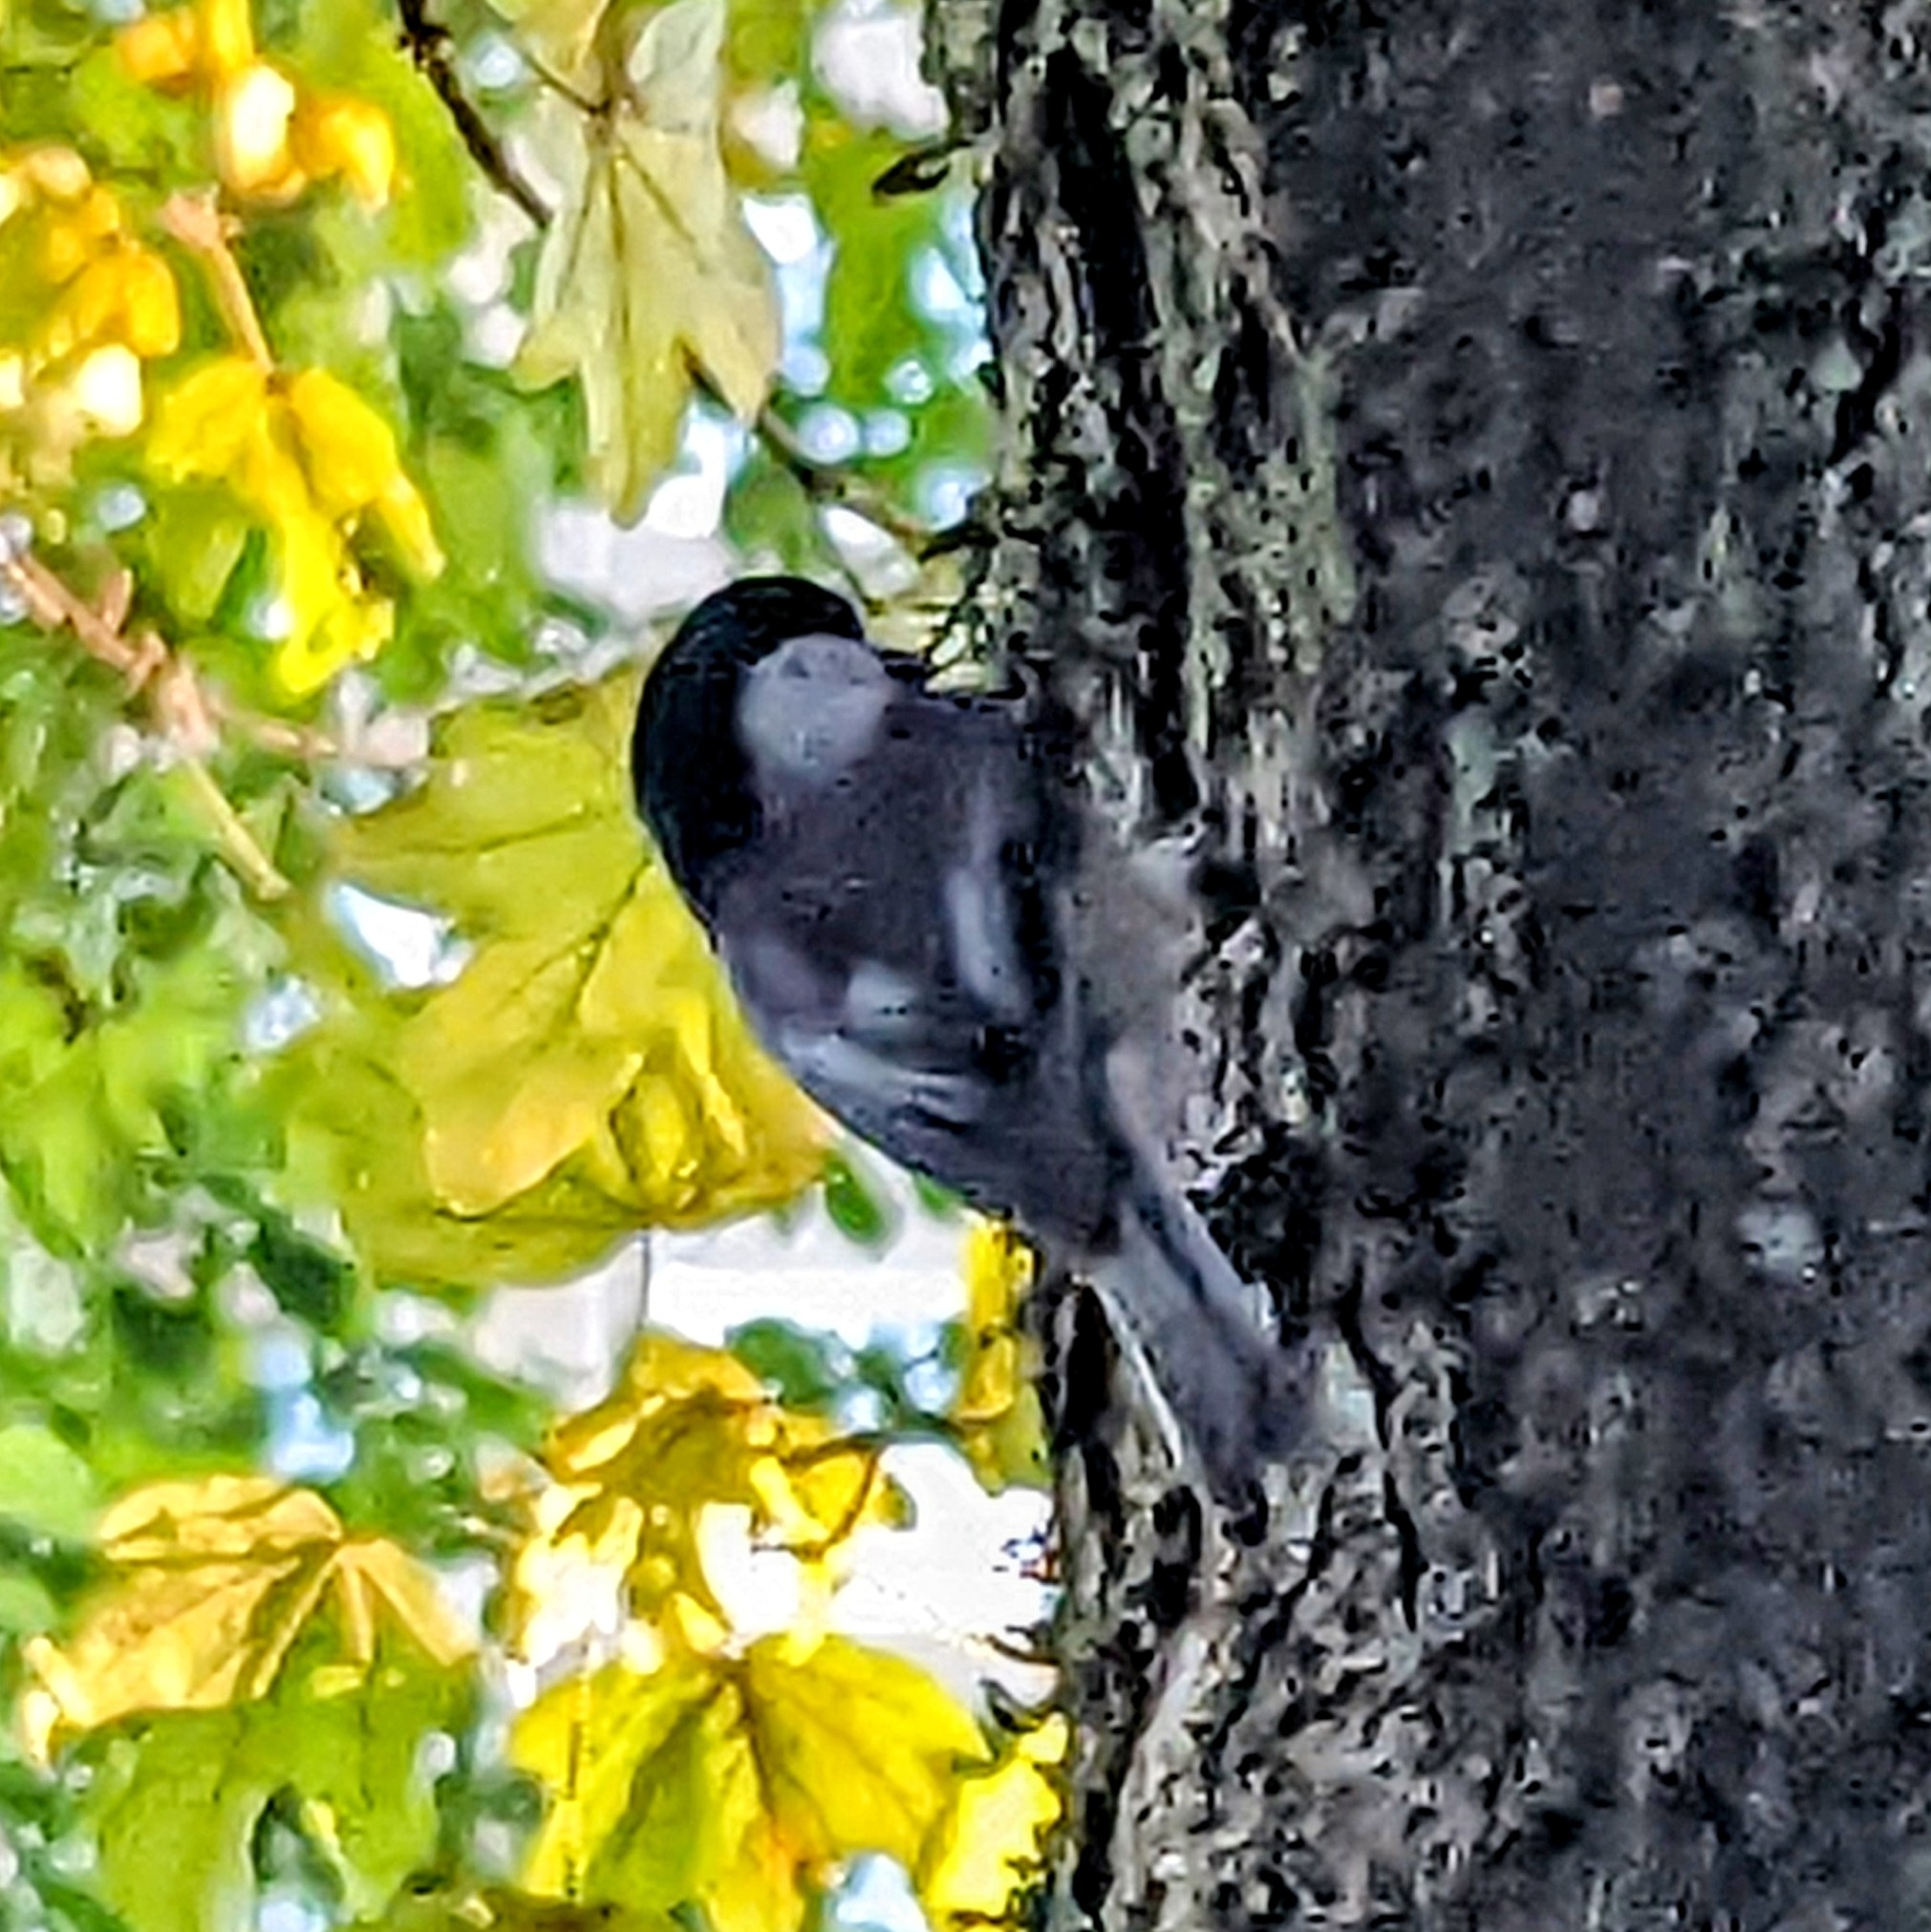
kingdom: Animalia
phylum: Chordata
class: Aves
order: Passeriformes
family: Paridae
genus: Poecile
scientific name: Poecile atricapillus
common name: Black-capped chickadee
